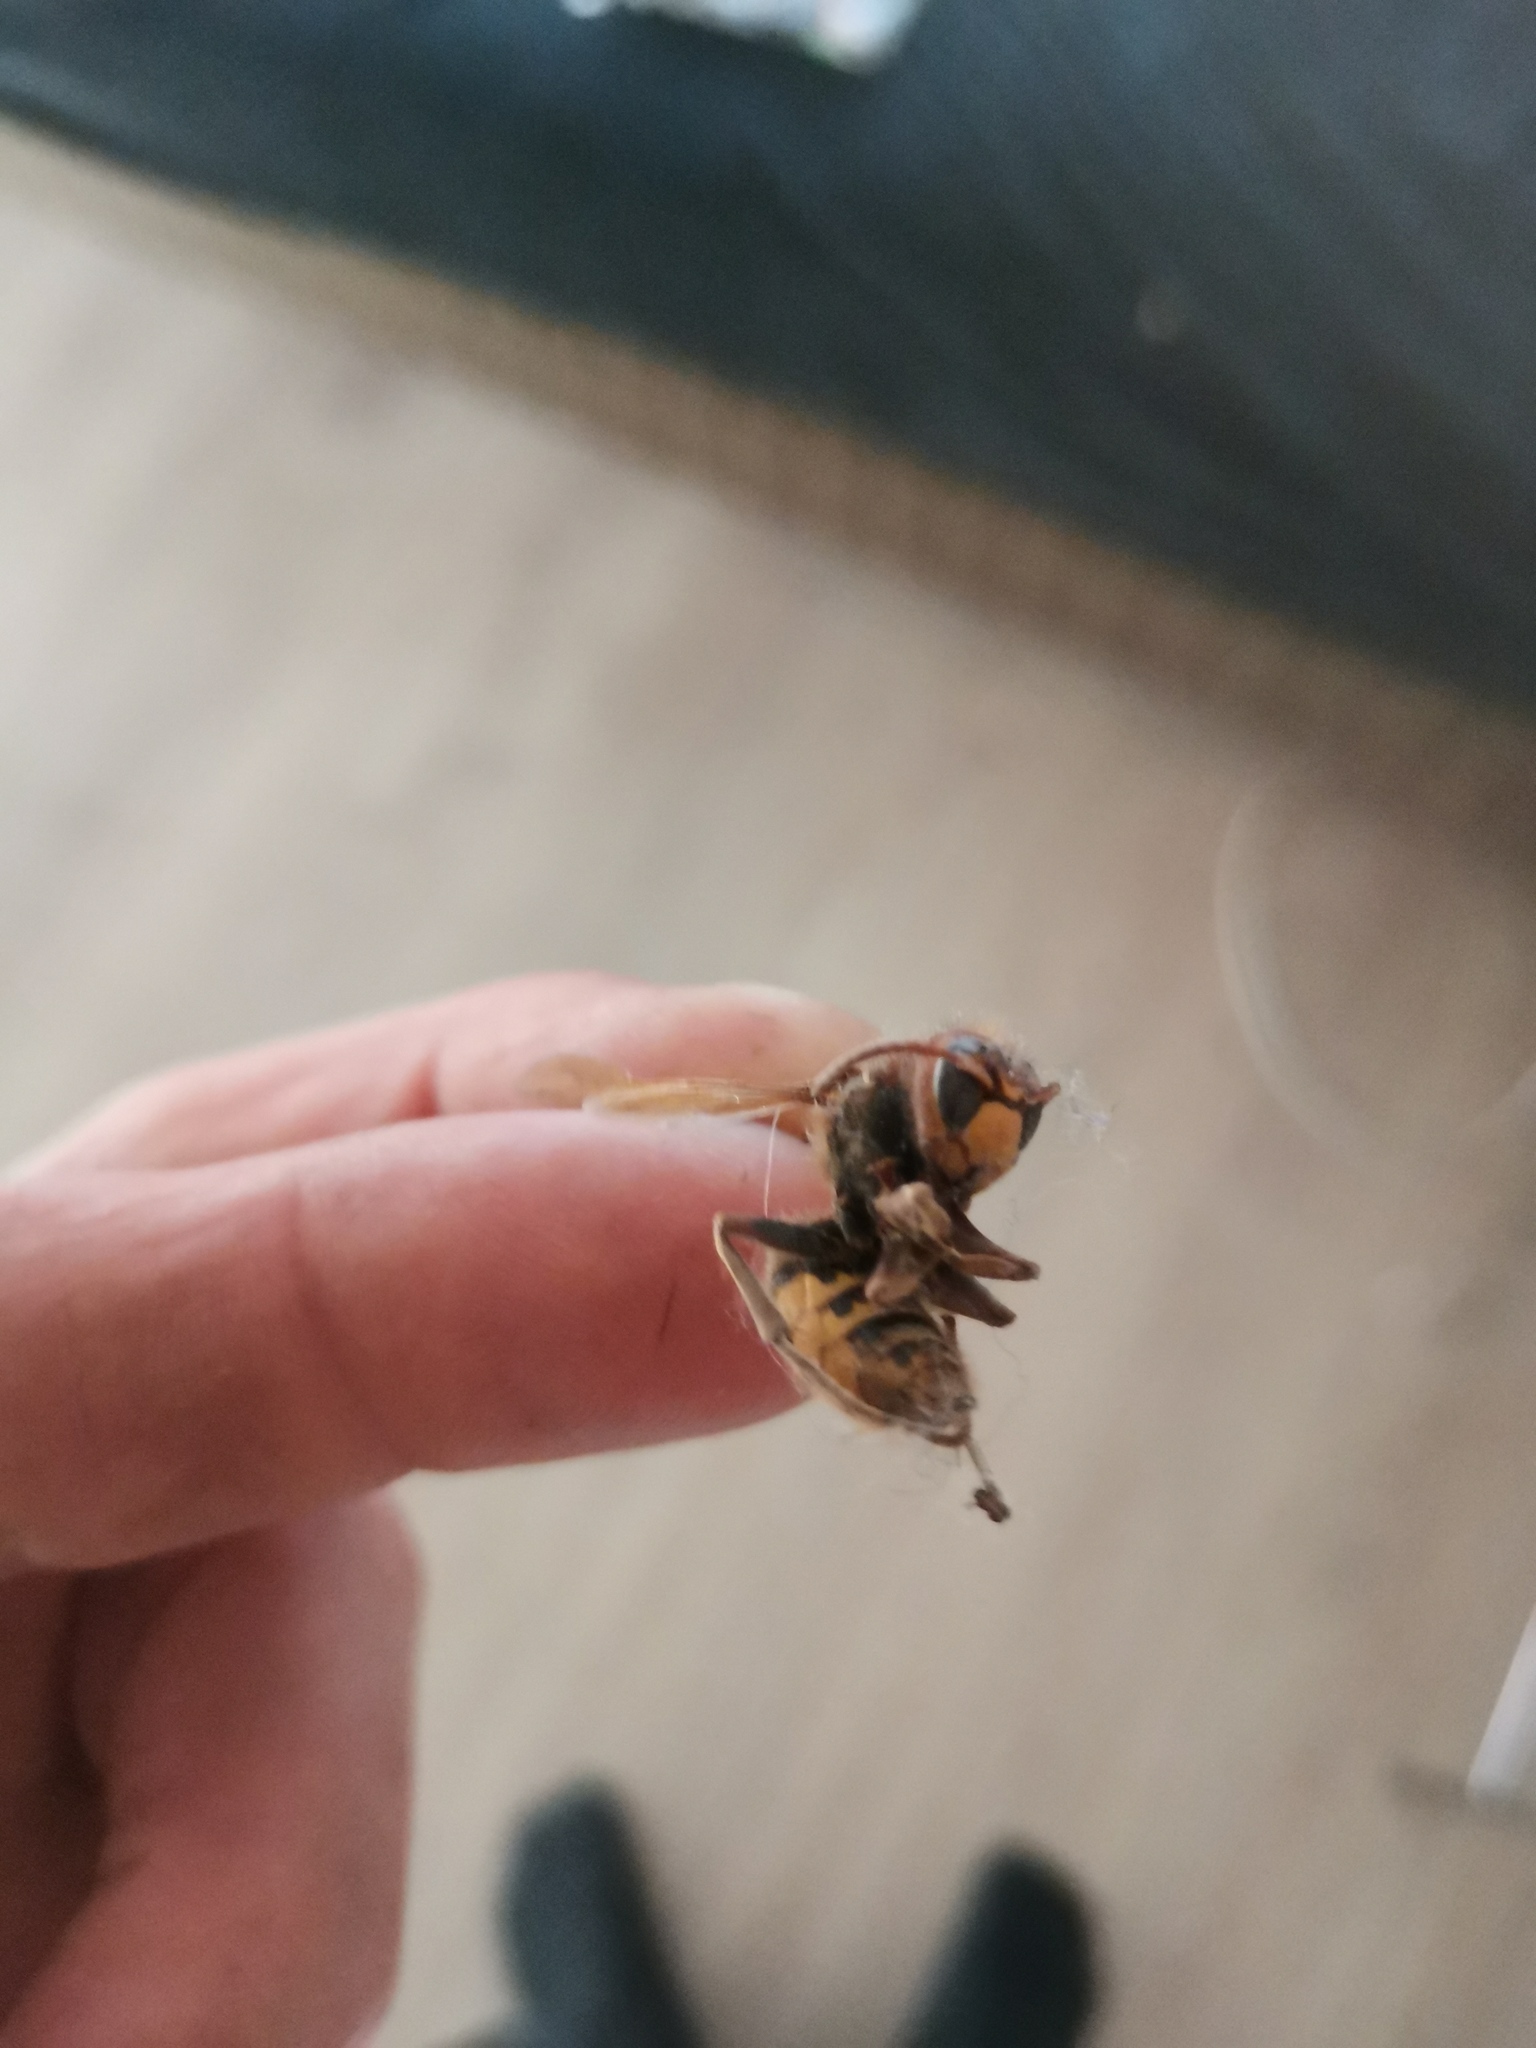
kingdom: Animalia
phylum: Arthropoda
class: Insecta
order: Hymenoptera
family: Vespidae
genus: Vespa
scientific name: Vespa crabro
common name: Hornet
